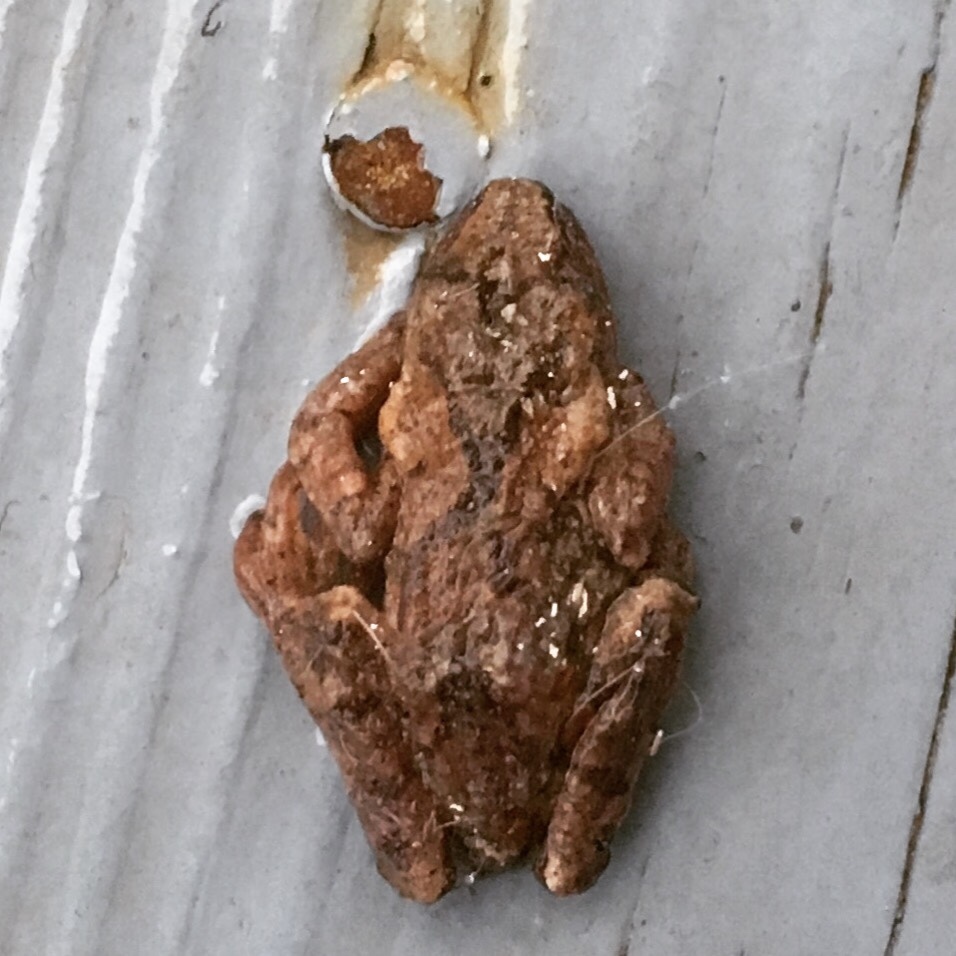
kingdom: Animalia
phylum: Chordata
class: Amphibia
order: Anura
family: Hylidae
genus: Pseudacris
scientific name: Pseudacris crucifer
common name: Spring peeper
